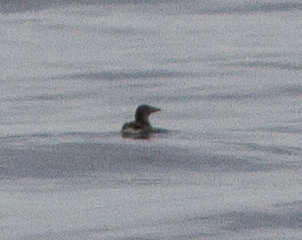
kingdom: Animalia
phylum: Chordata
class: Aves
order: Charadriiformes
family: Alcidae
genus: Cerorhinca
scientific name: Cerorhinca monocerata
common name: Rhinoceros auklet
